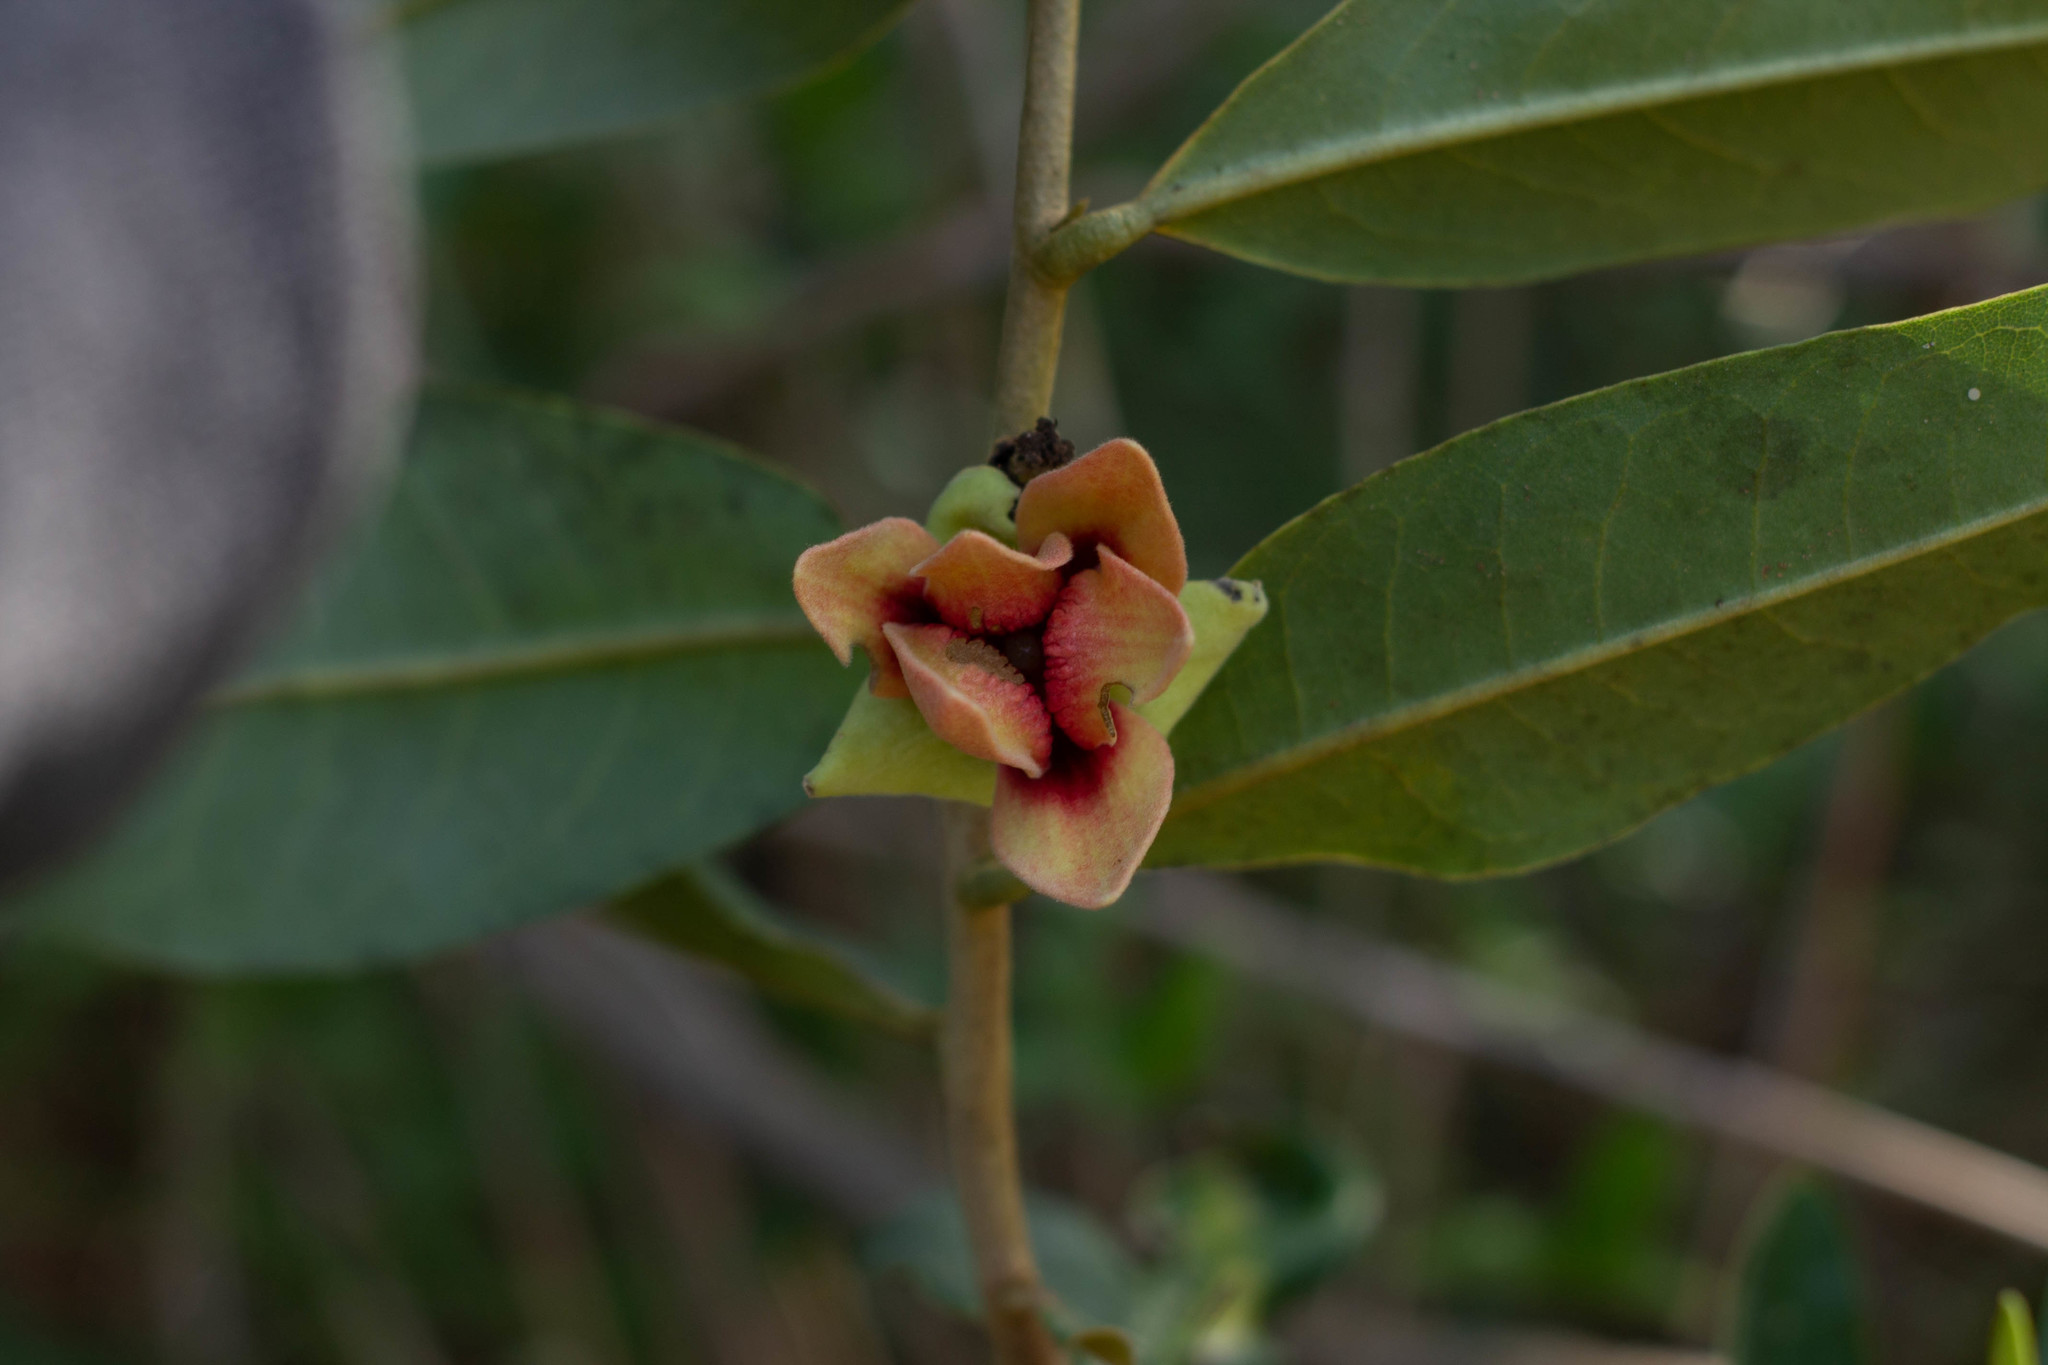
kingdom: Plantae
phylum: Tracheophyta
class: Magnoliopsida
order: Magnoliales
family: Annonaceae
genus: Duguetia
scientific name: Duguetia furfuracea
